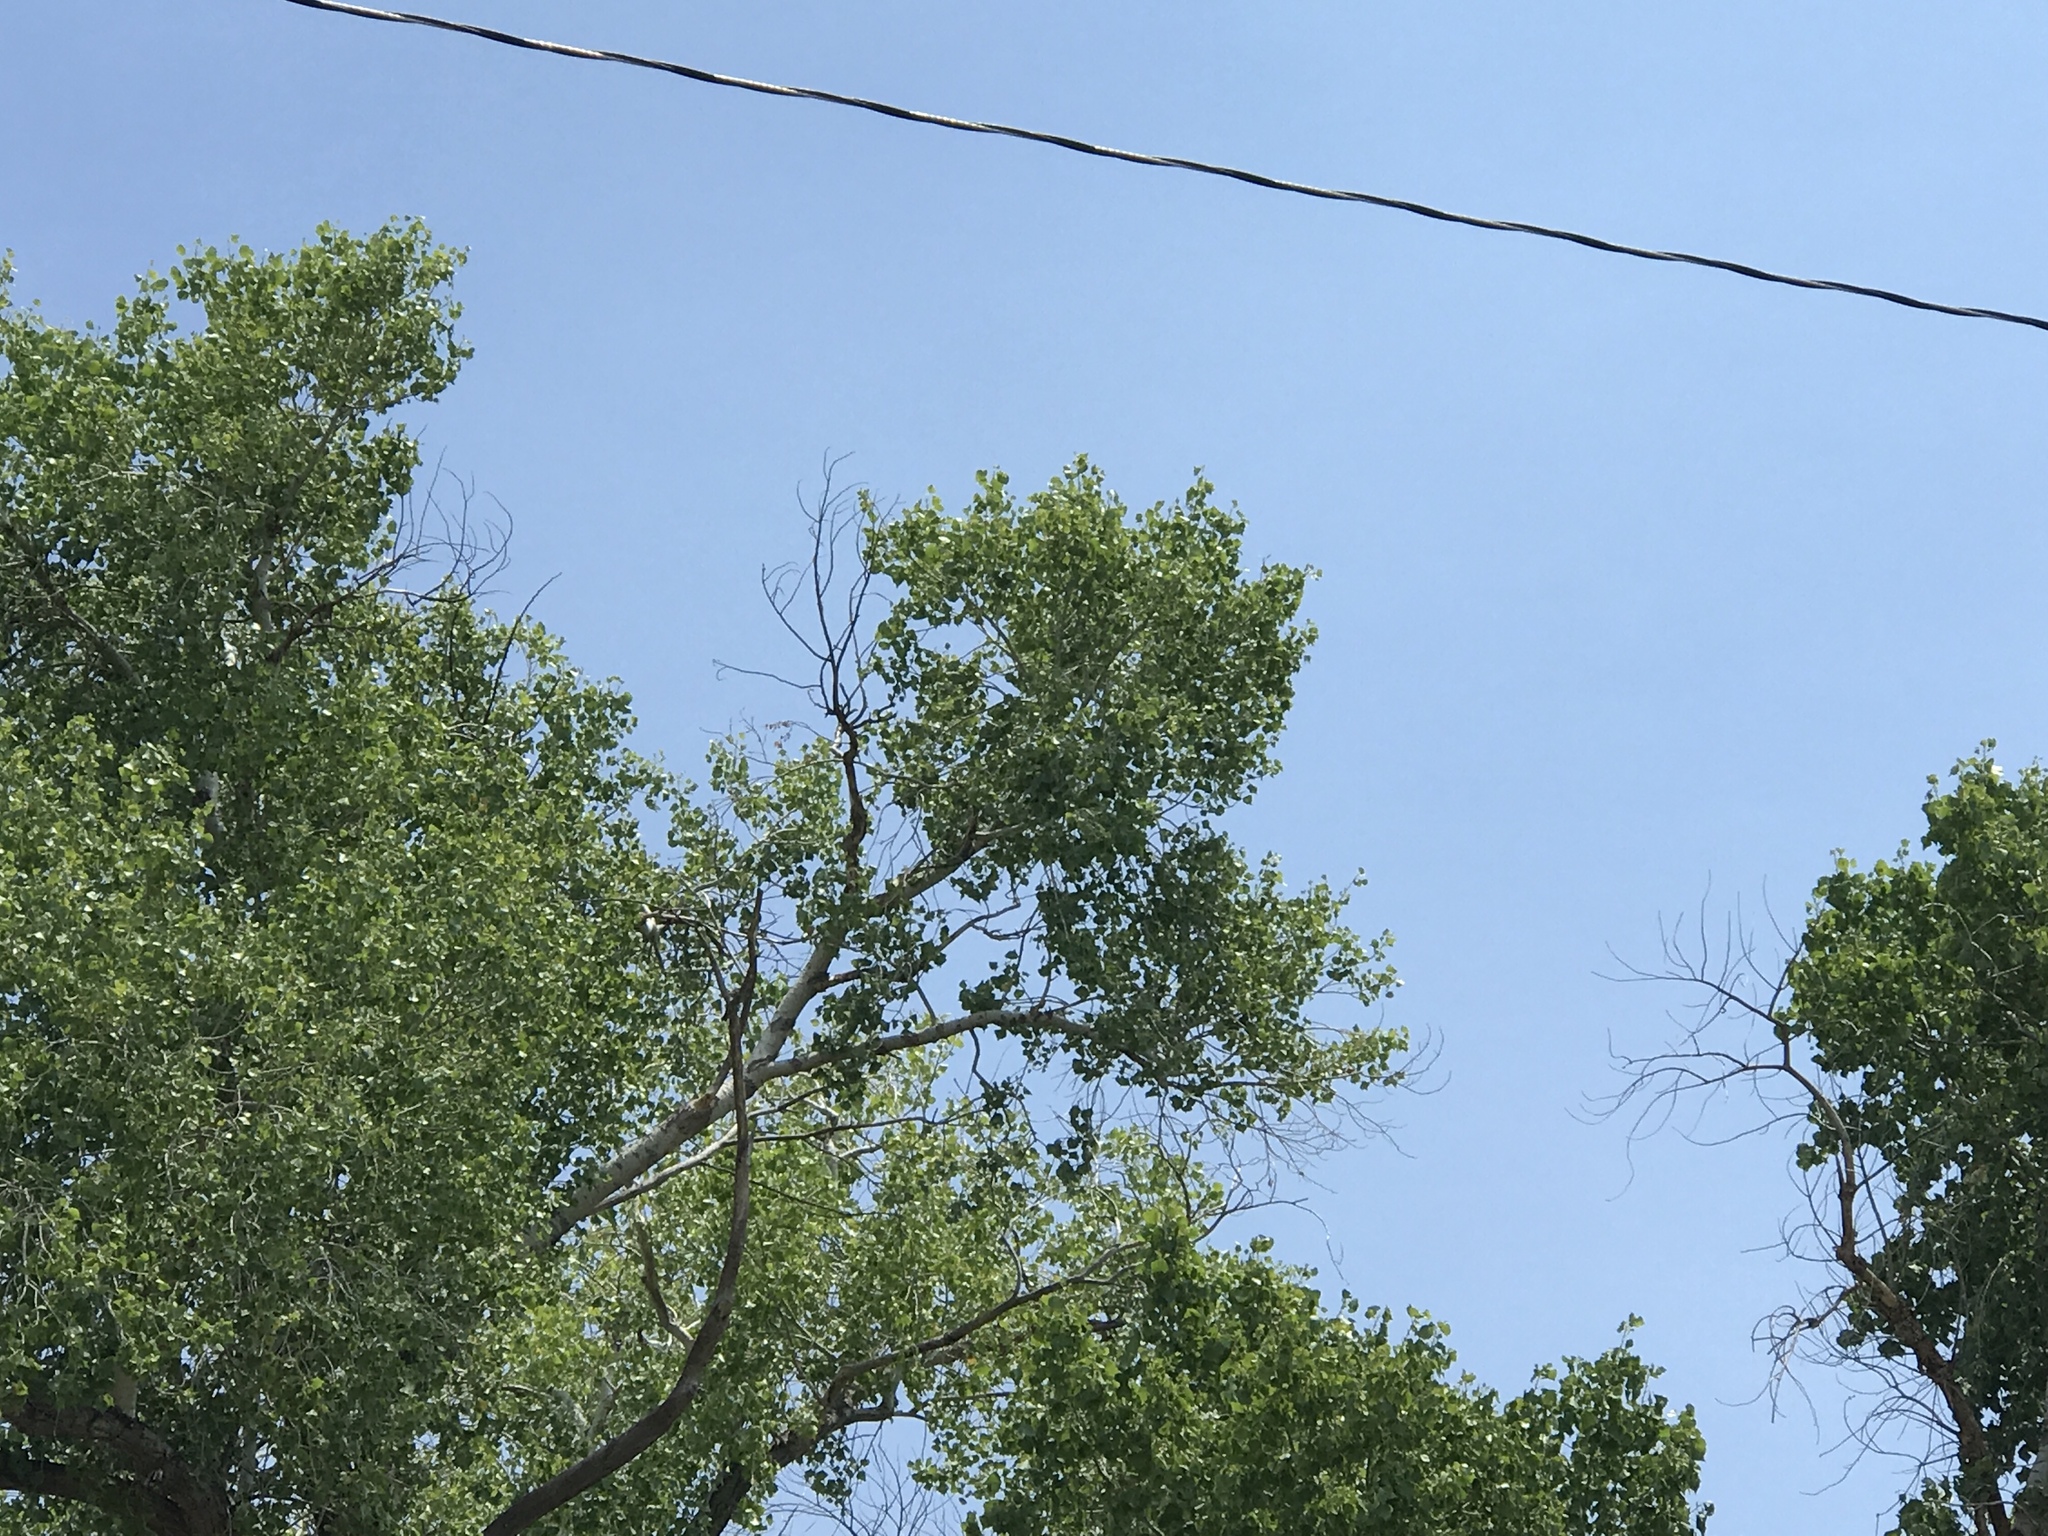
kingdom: Plantae
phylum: Tracheophyta
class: Magnoliopsida
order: Malpighiales
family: Salicaceae
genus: Populus
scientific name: Populus fremontii
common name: Fremont's cottonwood
